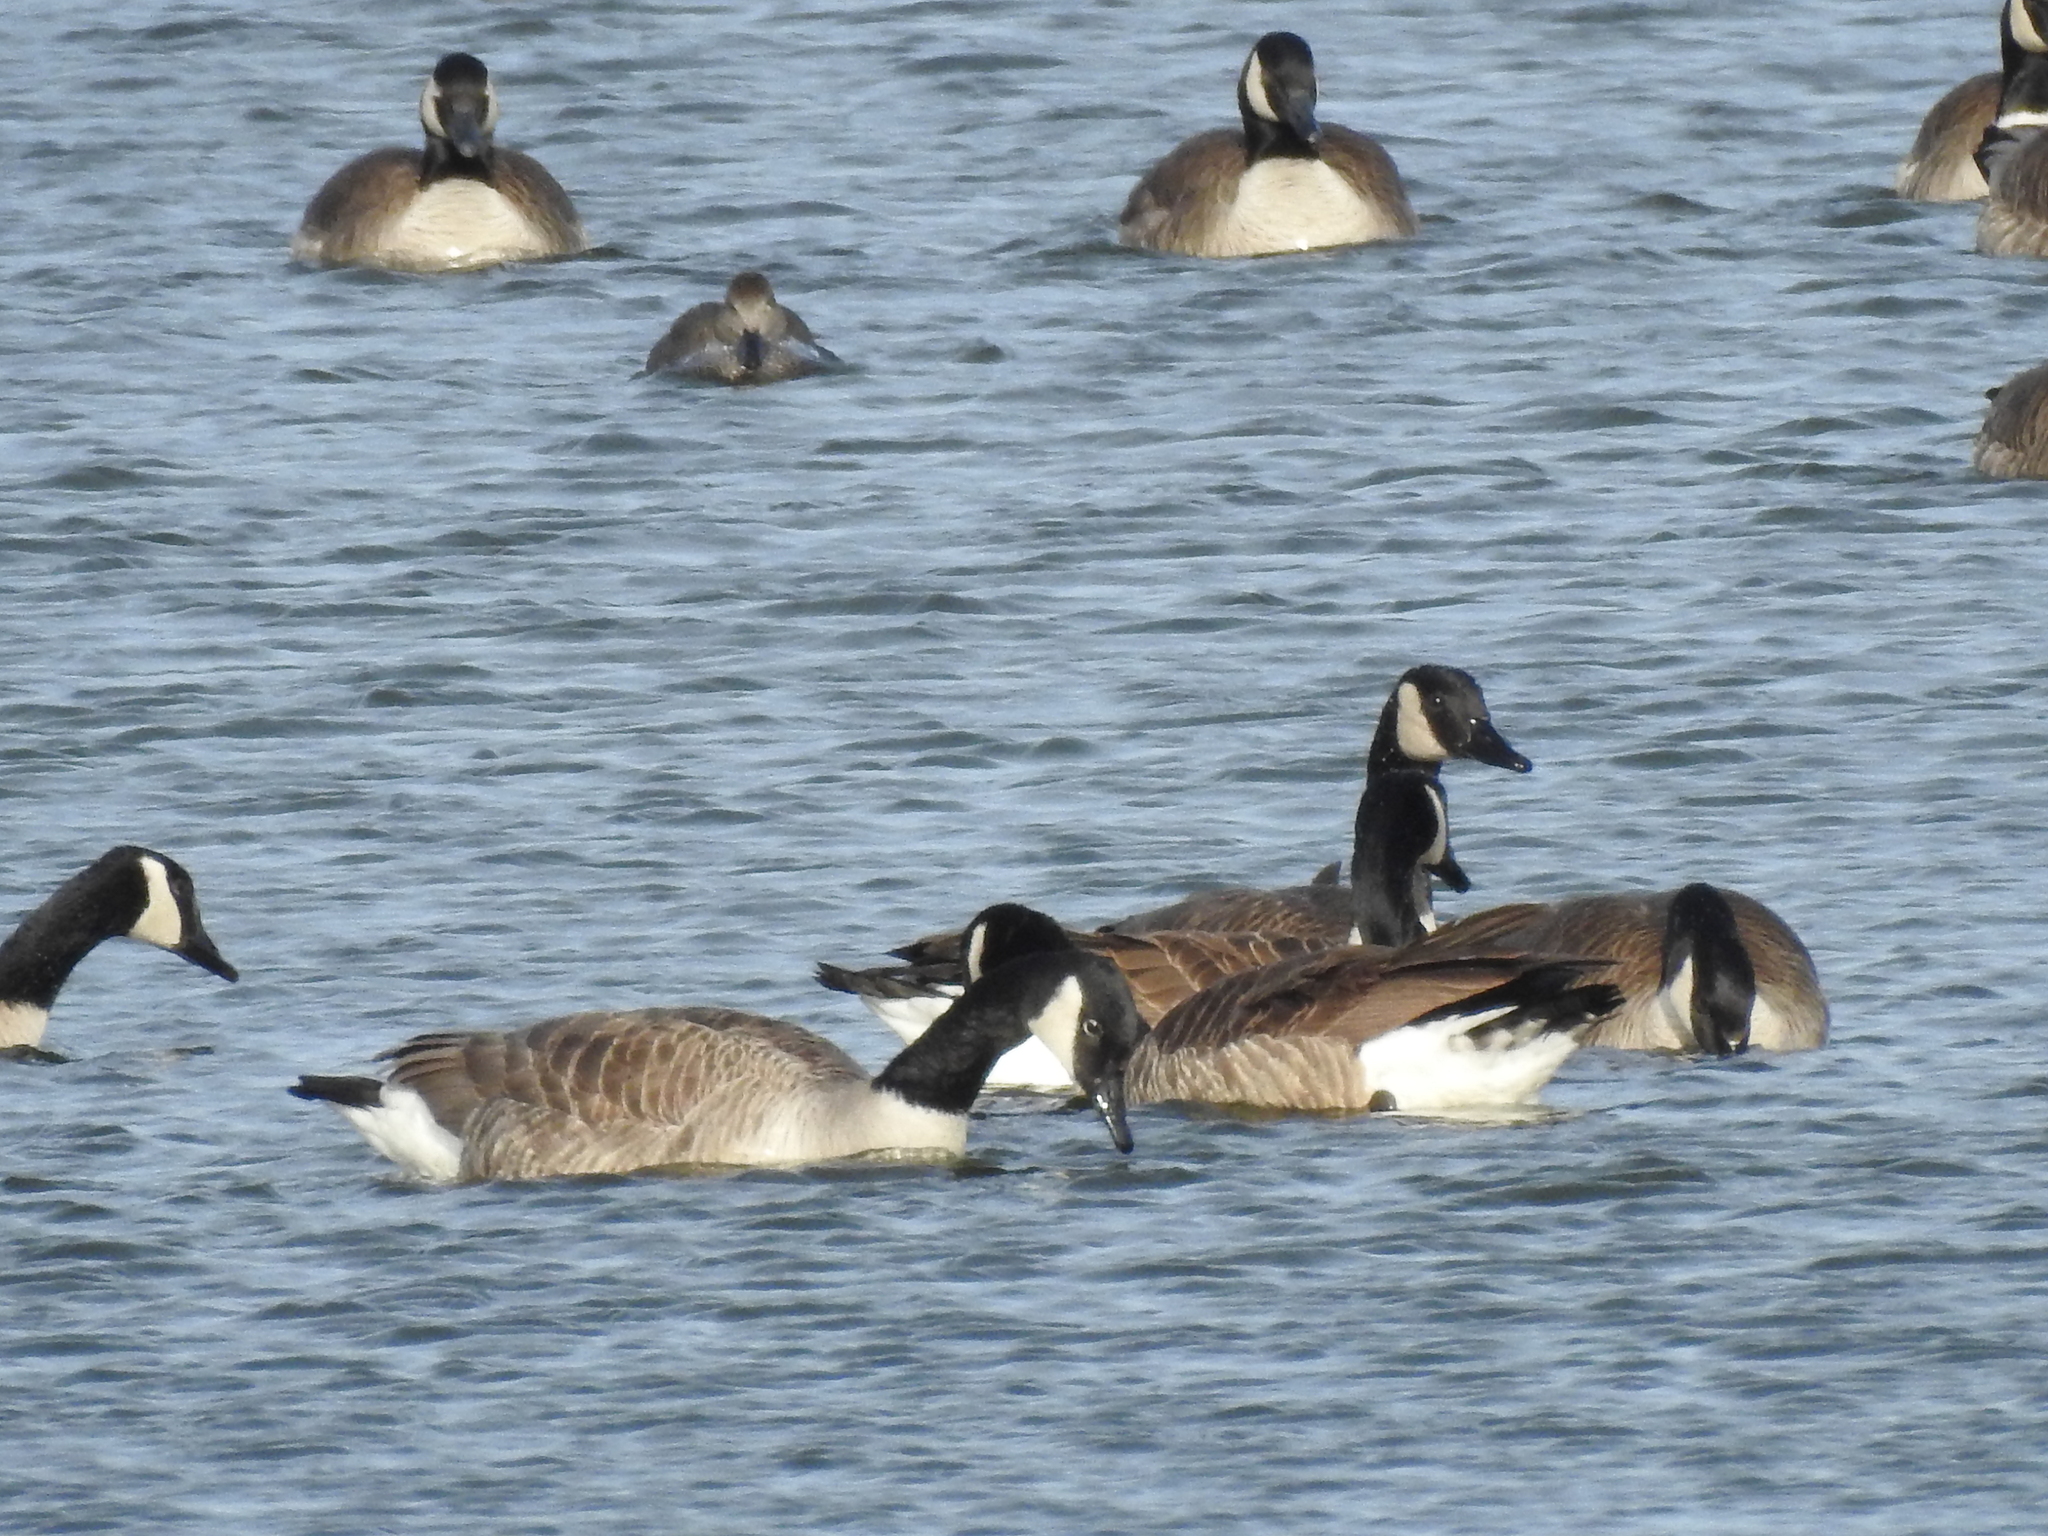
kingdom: Animalia
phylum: Chordata
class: Aves
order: Anseriformes
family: Anatidae
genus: Branta
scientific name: Branta canadensis
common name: Canada goose
